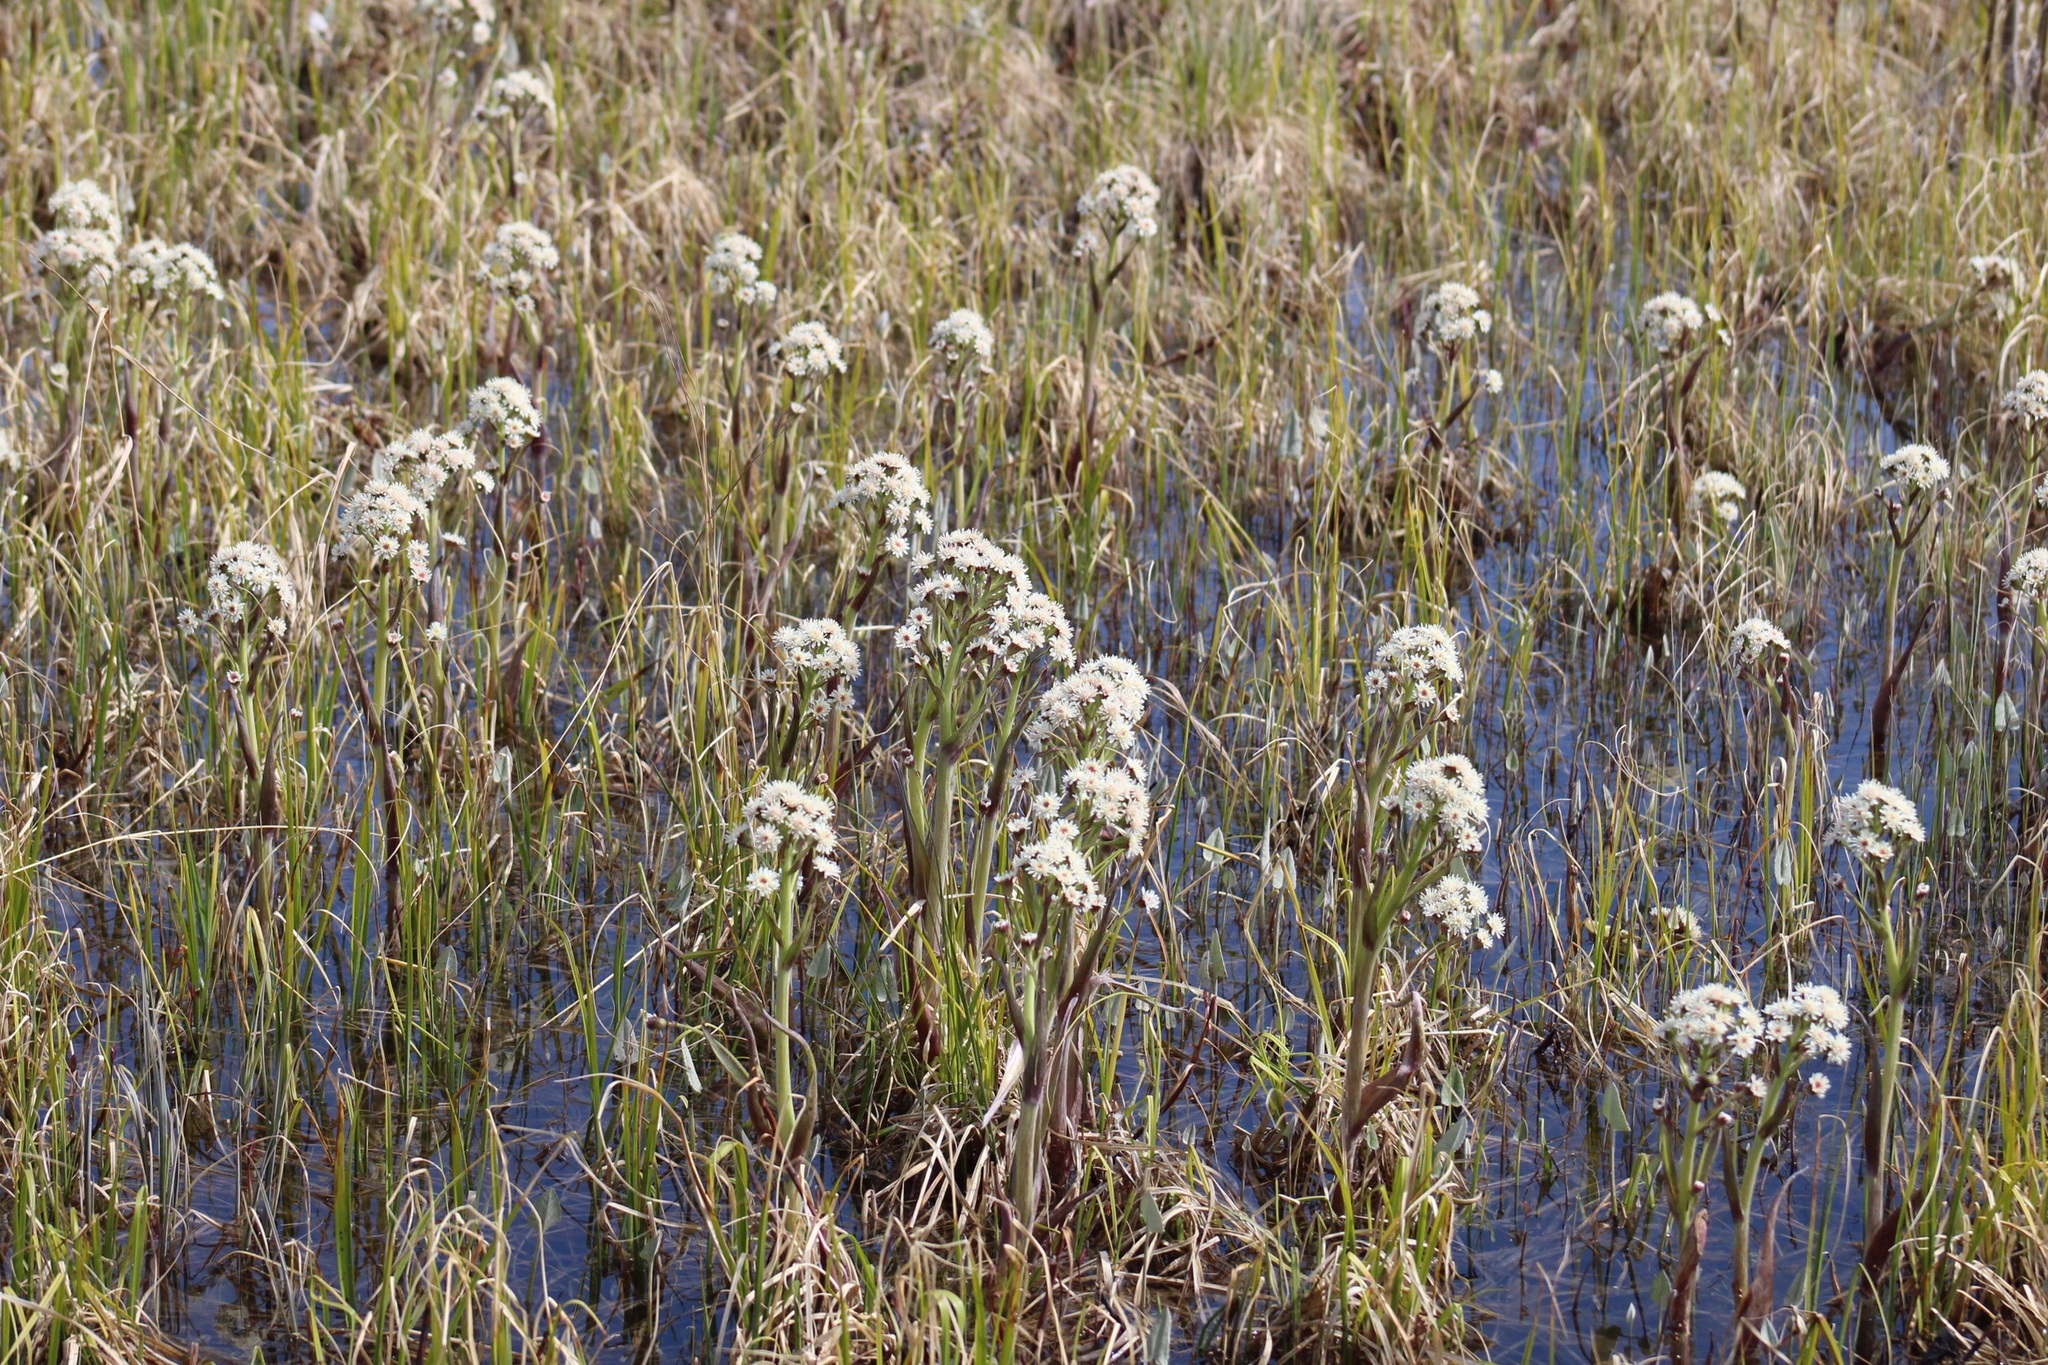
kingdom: Plantae
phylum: Tracheophyta
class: Magnoliopsida
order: Asterales
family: Asteraceae
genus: Petasites
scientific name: Petasites frigidus
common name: Arctic butterbur
